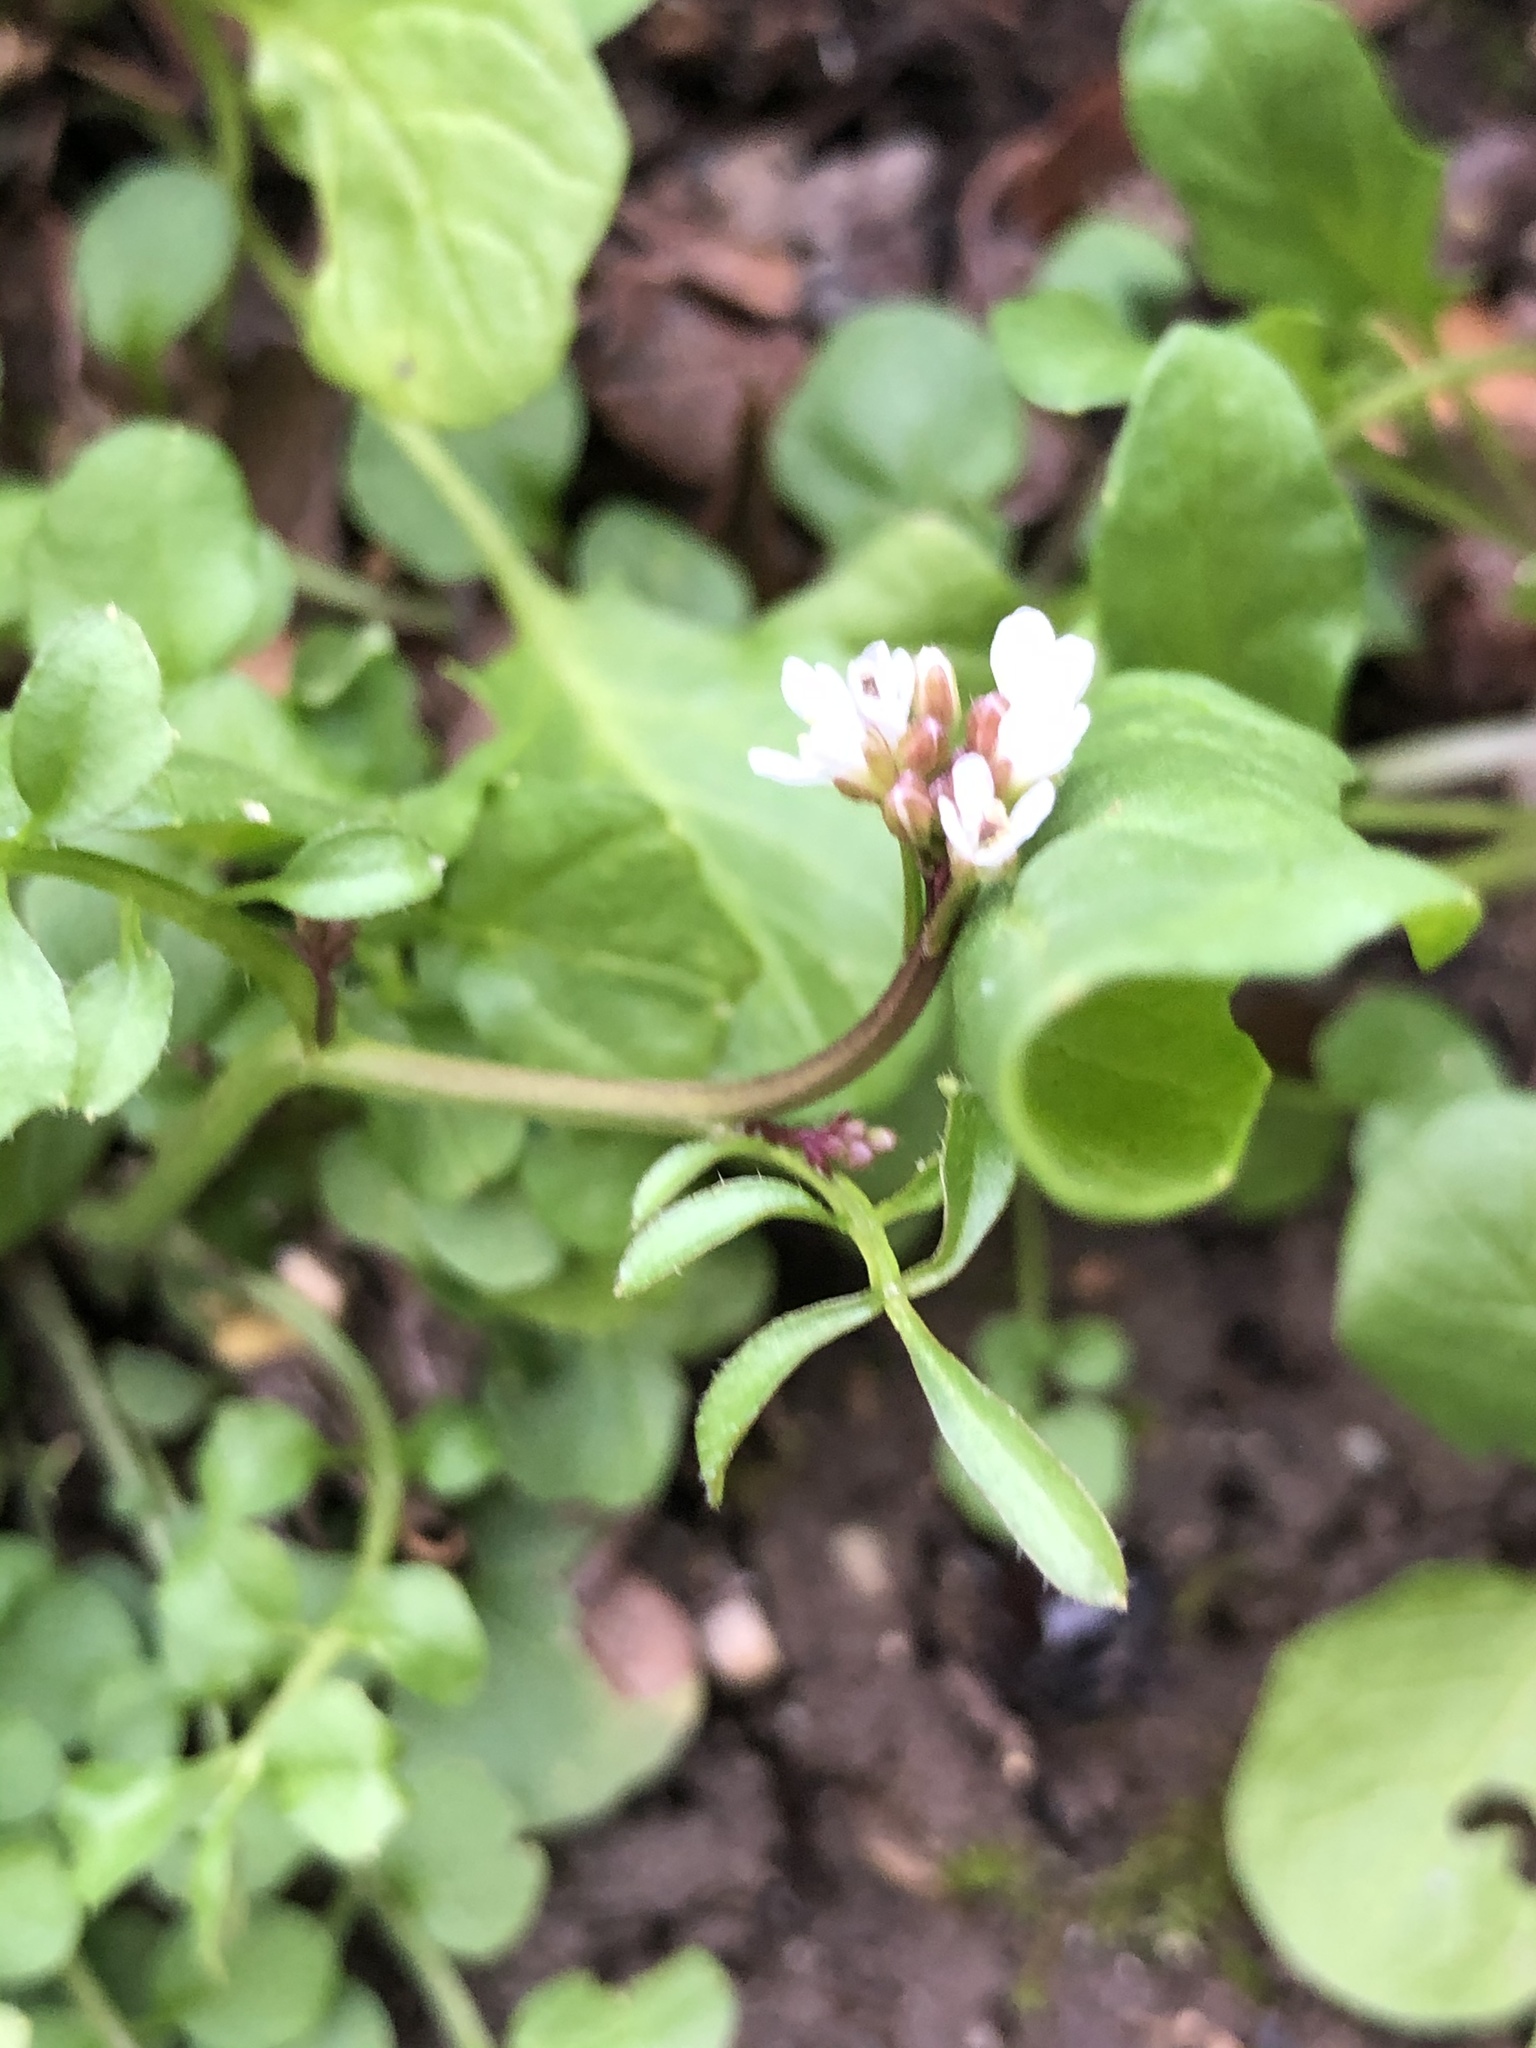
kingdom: Plantae
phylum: Tracheophyta
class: Magnoliopsida
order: Brassicales
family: Brassicaceae
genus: Cardamine
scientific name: Cardamine hirsuta
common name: Hairy bittercress
